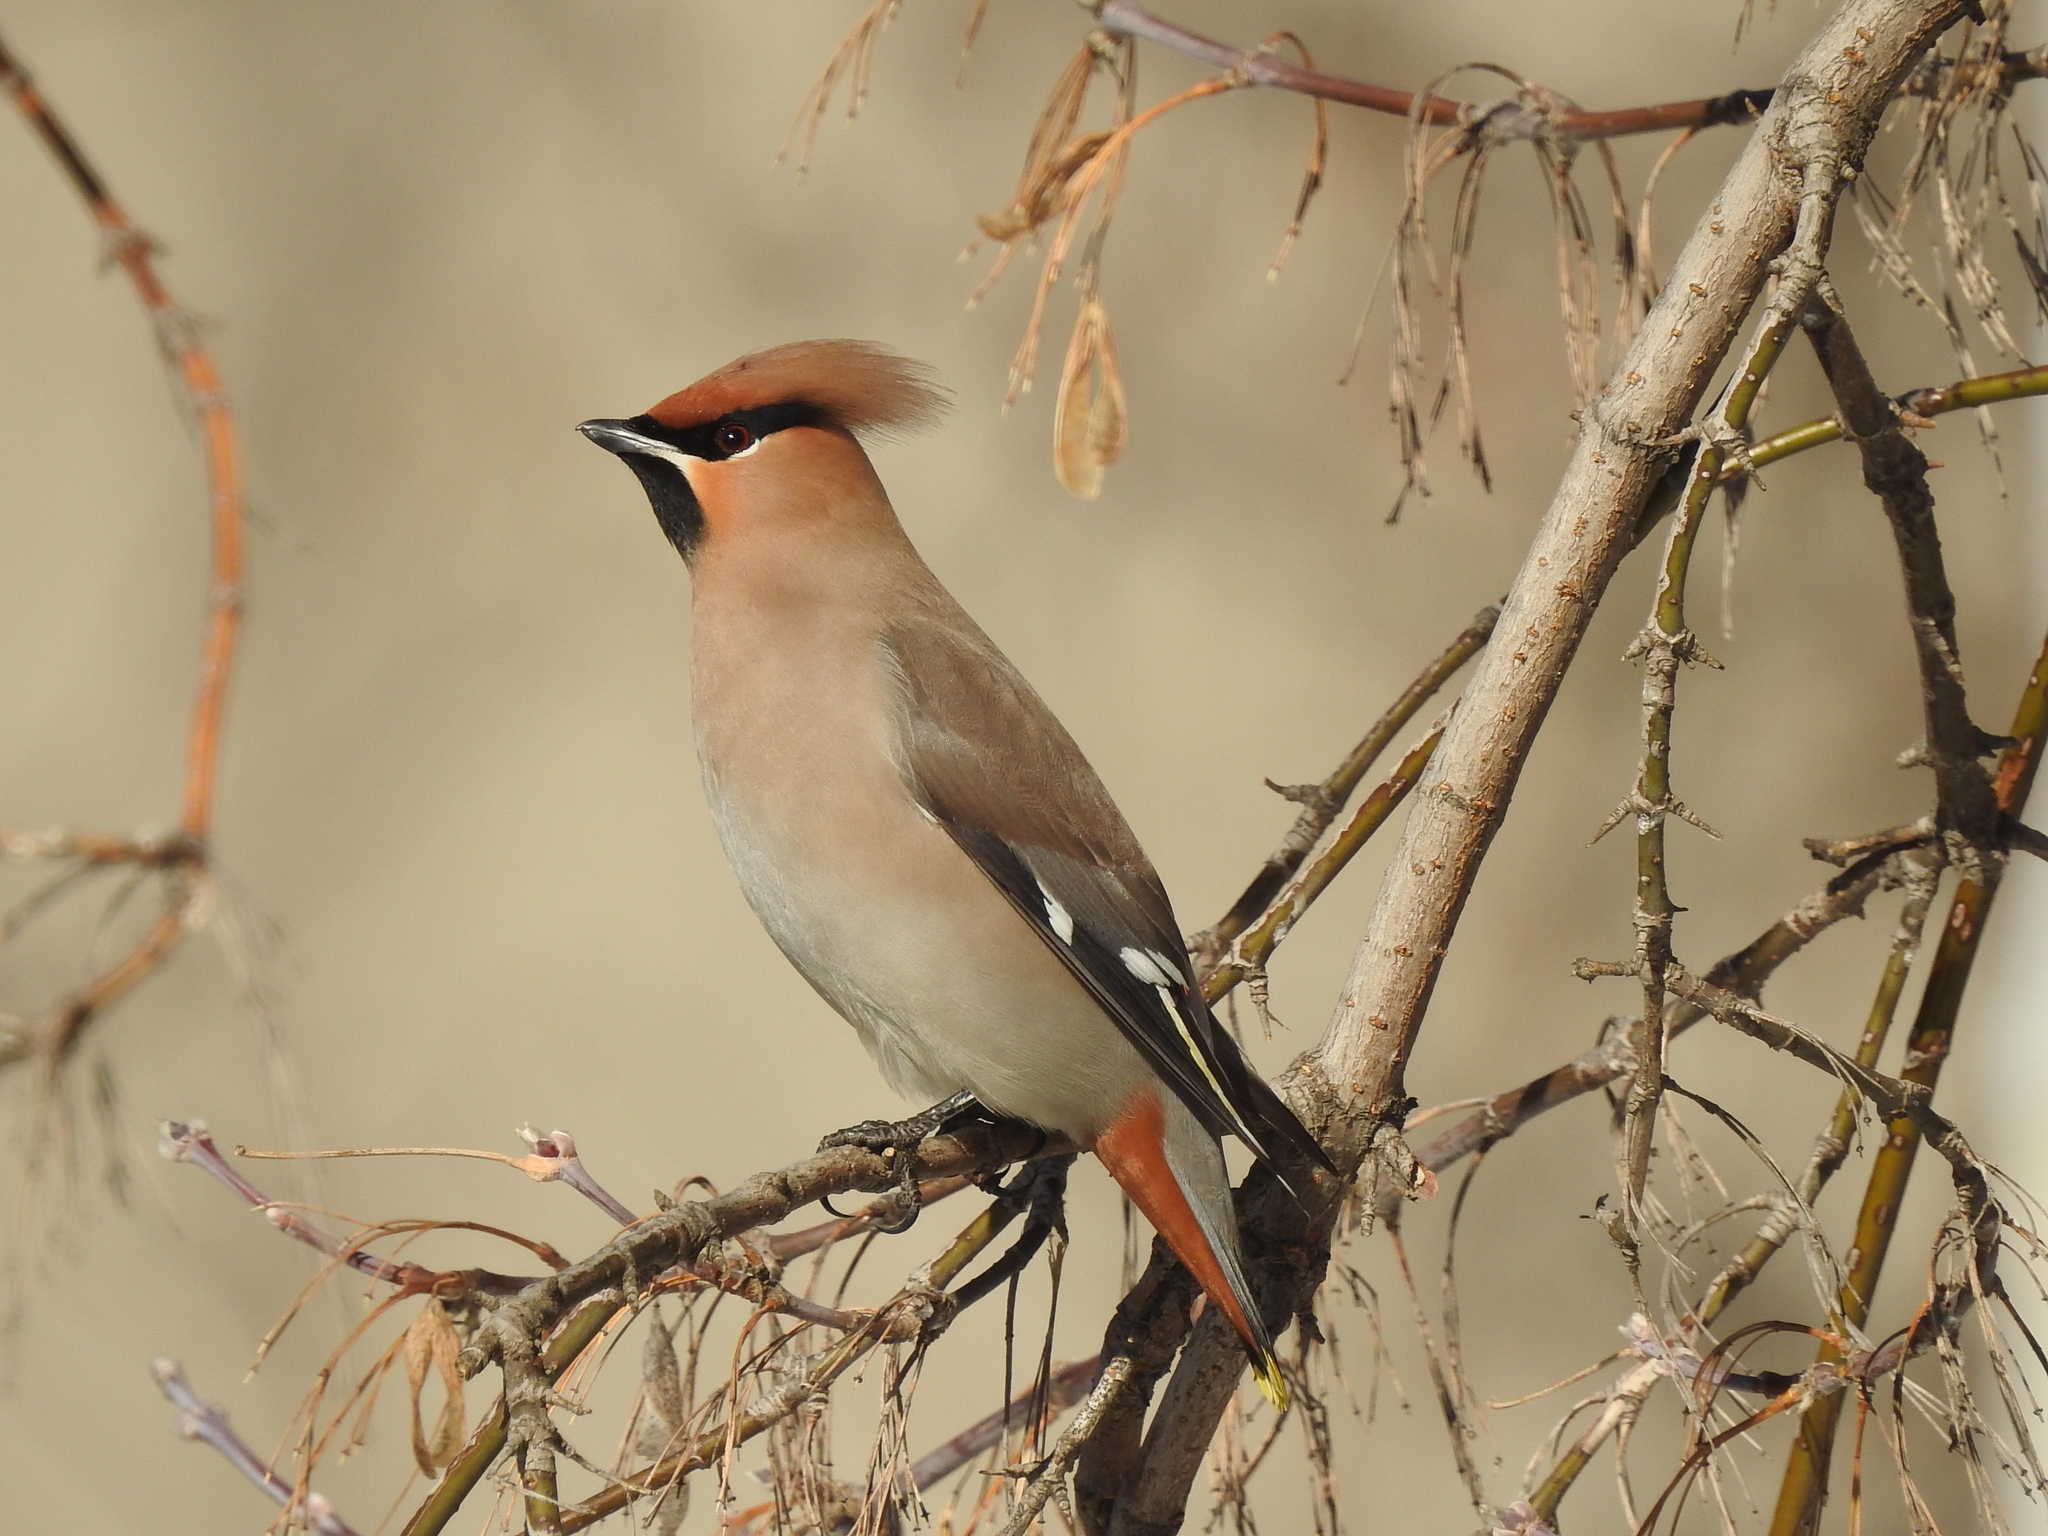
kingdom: Animalia
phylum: Chordata
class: Aves
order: Passeriformes
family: Bombycillidae
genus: Bombycilla
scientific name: Bombycilla garrulus
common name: Bohemian waxwing
